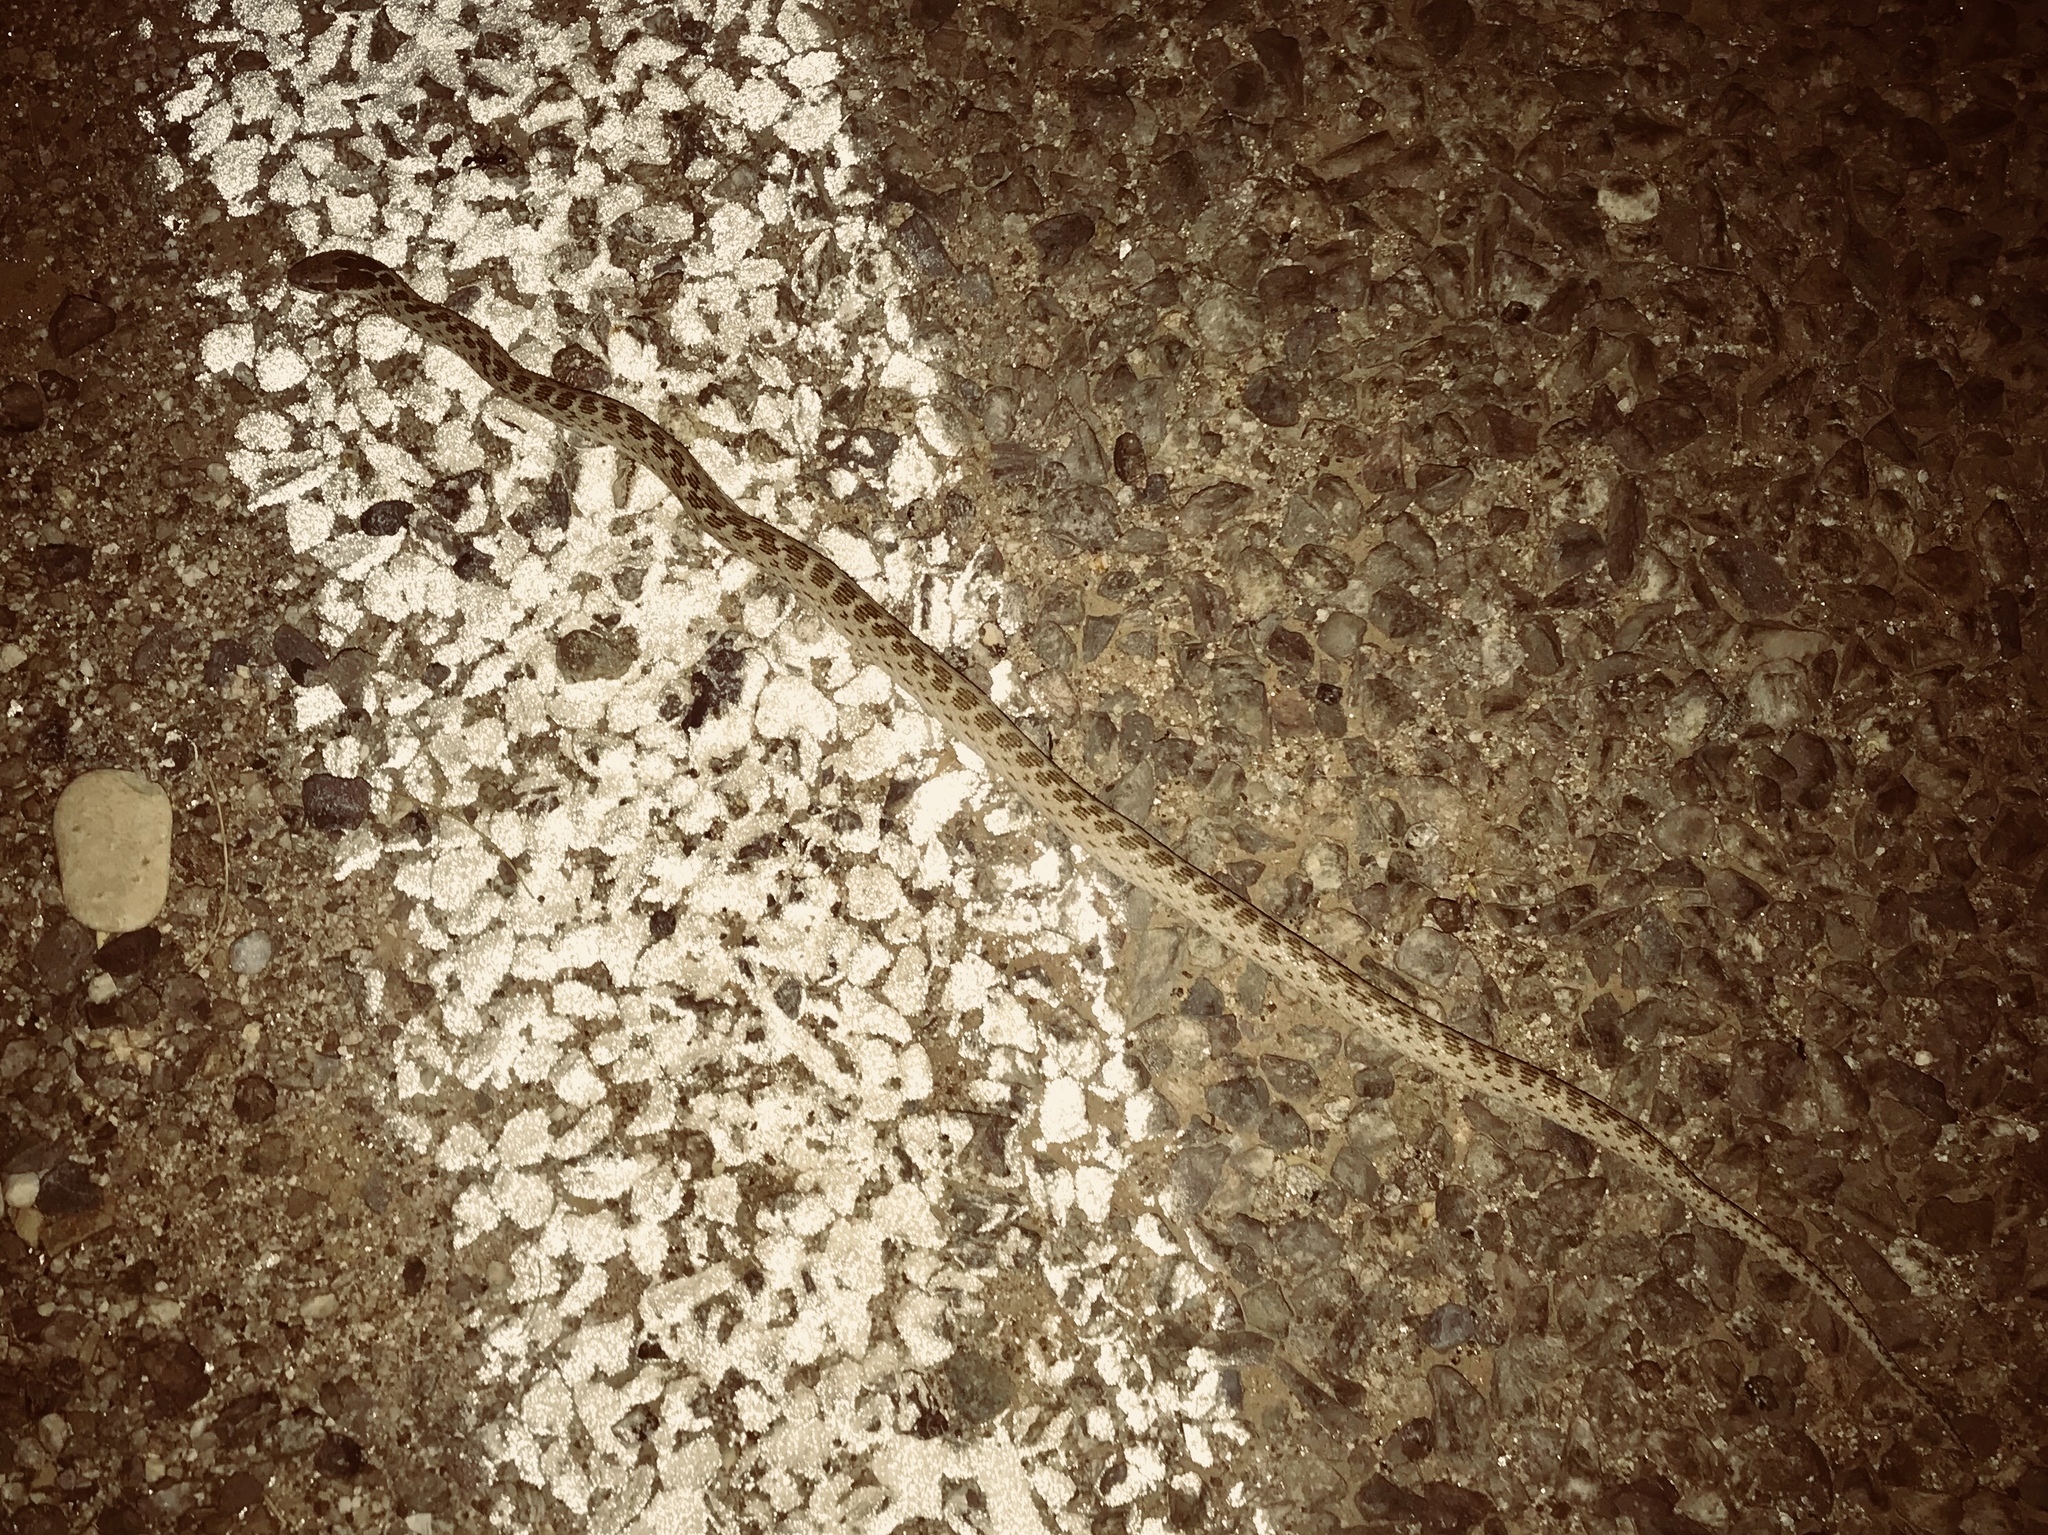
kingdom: Animalia
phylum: Chordata
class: Squamata
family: Colubridae
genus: Hypsiglena
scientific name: Hypsiglena chlorophaea
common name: Desert nightsnake
